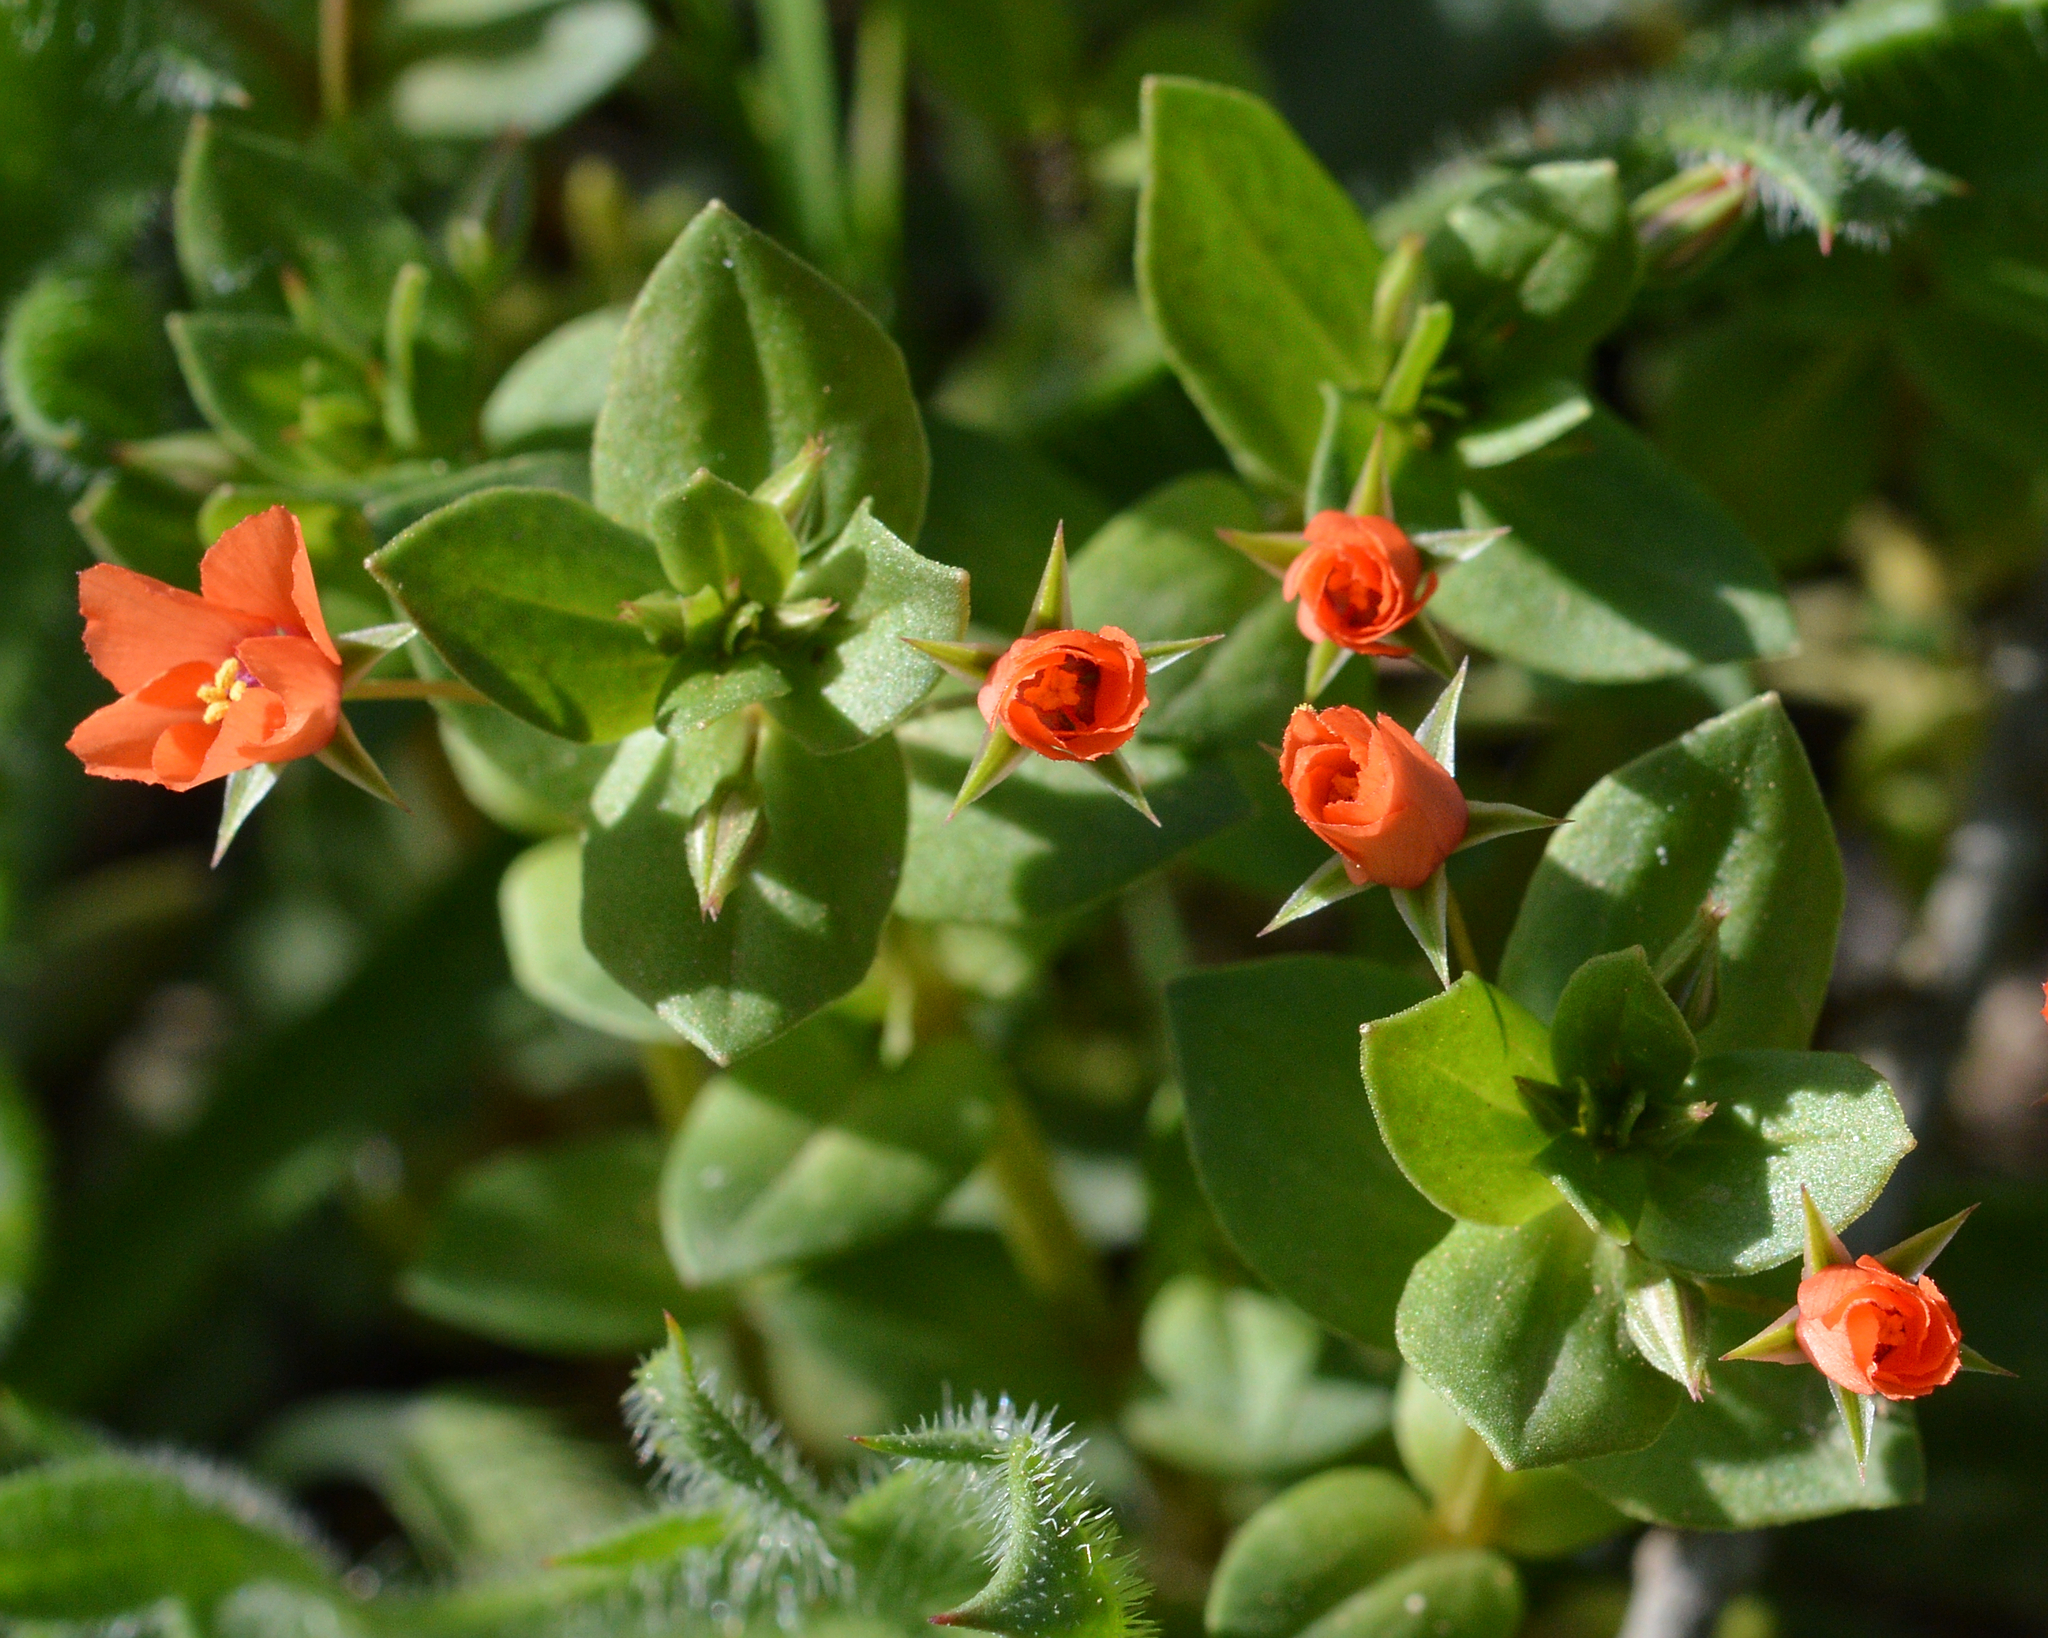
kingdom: Plantae
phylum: Tracheophyta
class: Magnoliopsida
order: Ericales
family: Primulaceae
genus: Lysimachia
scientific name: Lysimachia arvensis
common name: Scarlet pimpernel
